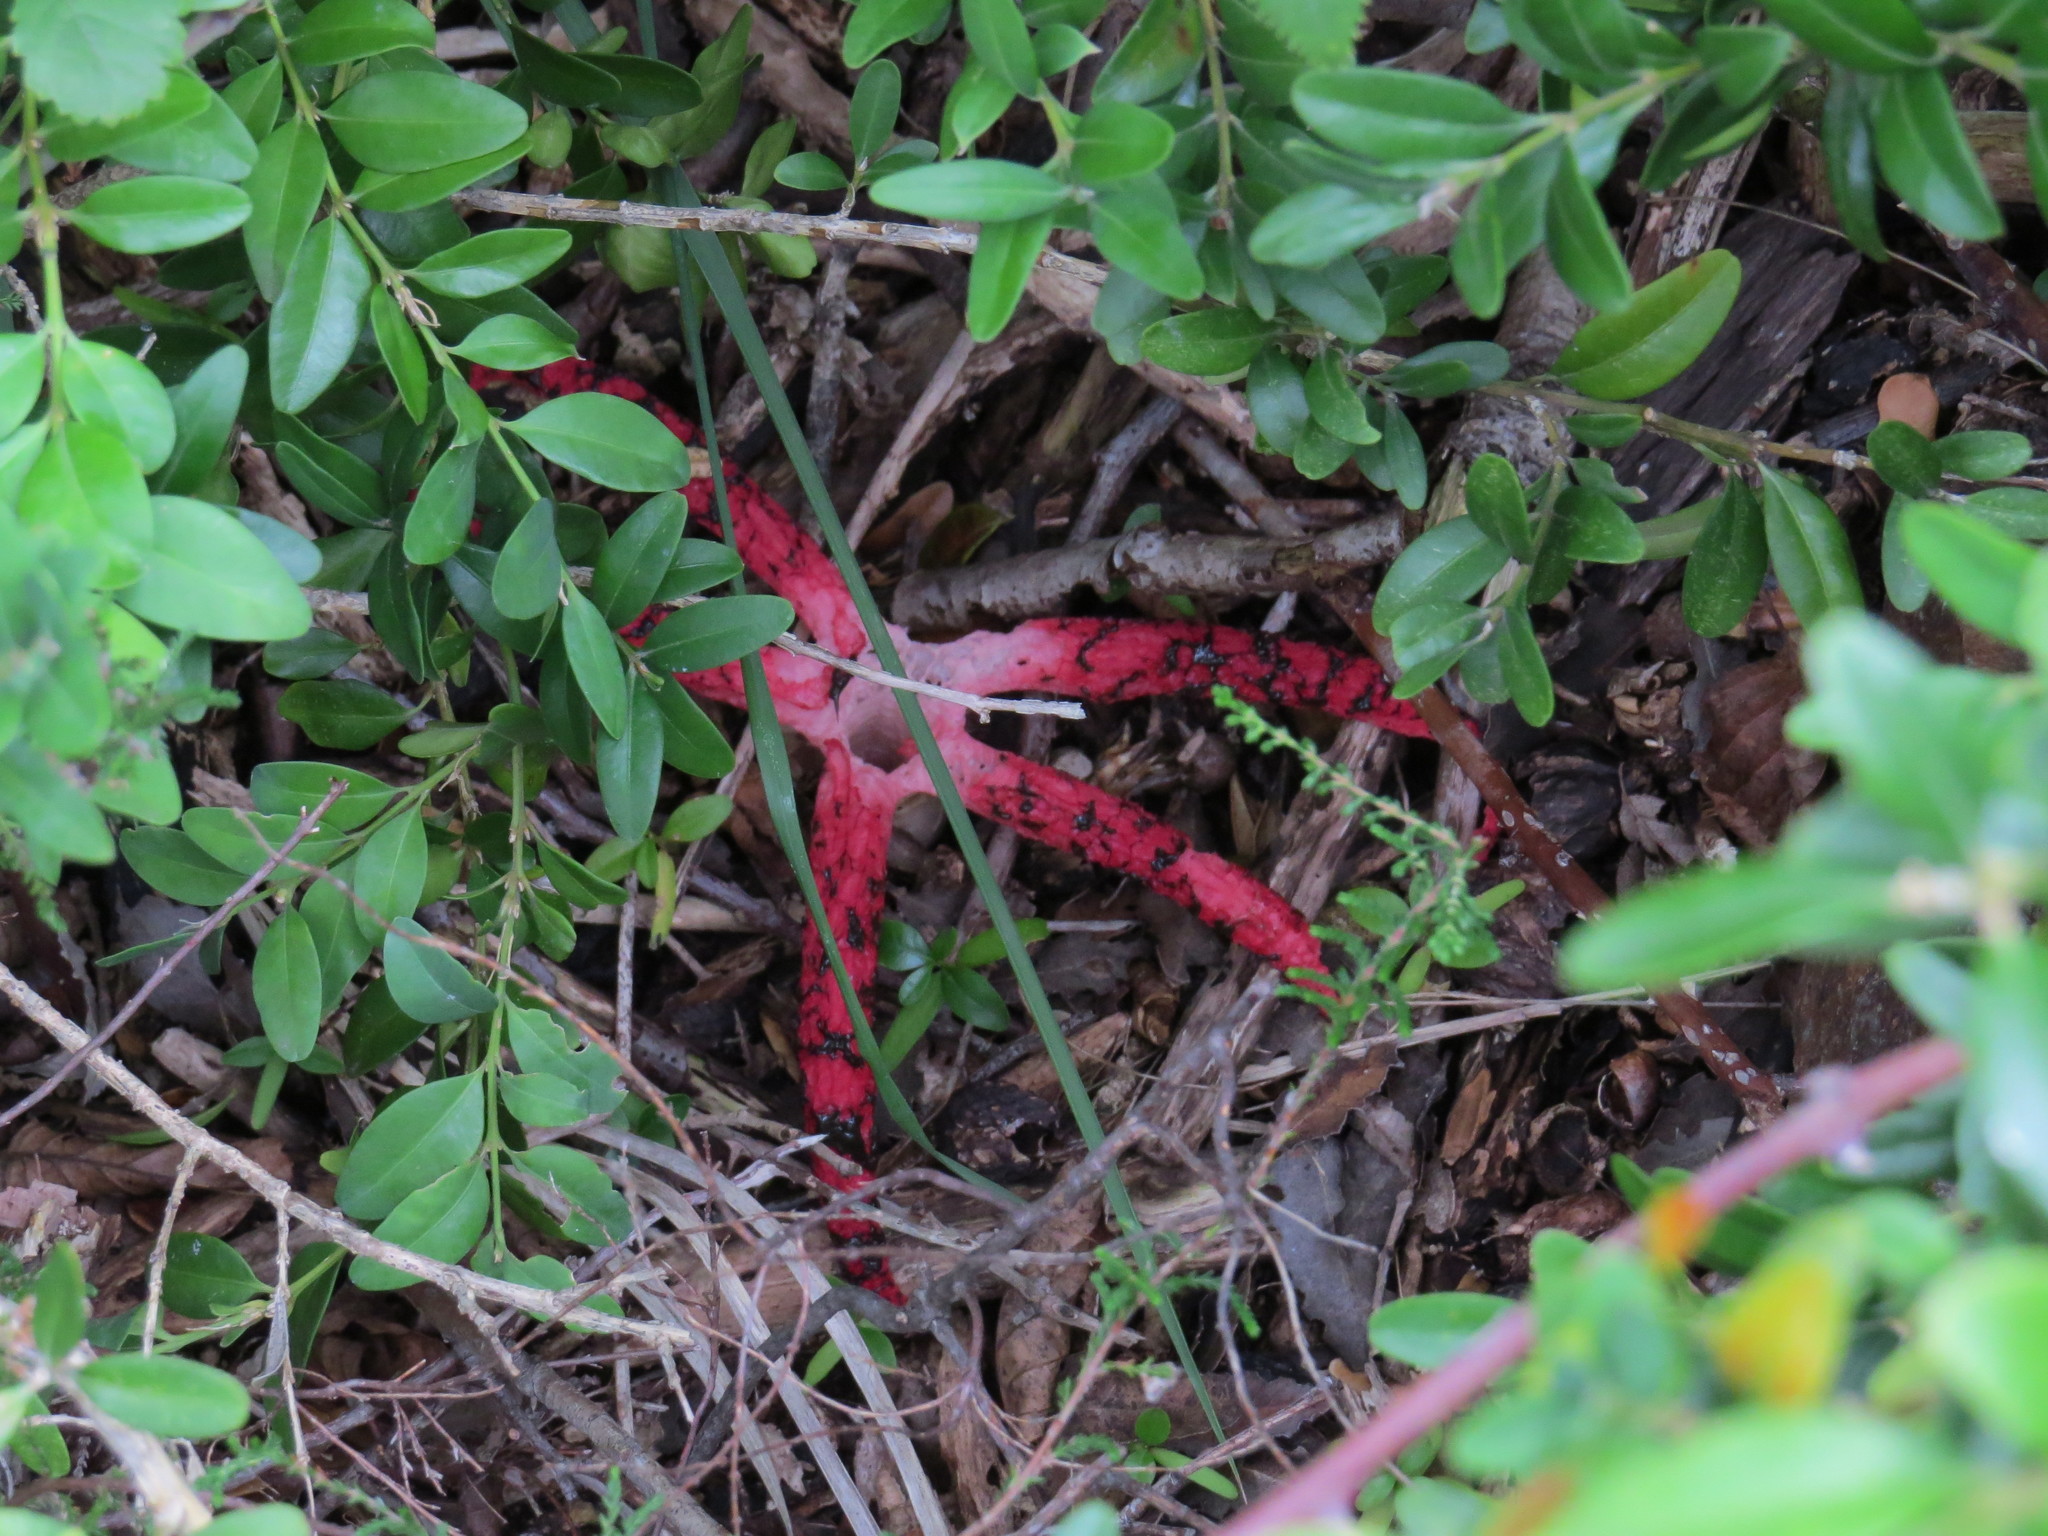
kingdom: Fungi
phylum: Basidiomycota
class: Agaricomycetes
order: Phallales
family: Phallaceae
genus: Clathrus
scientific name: Clathrus archeri
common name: Devil's fingers
